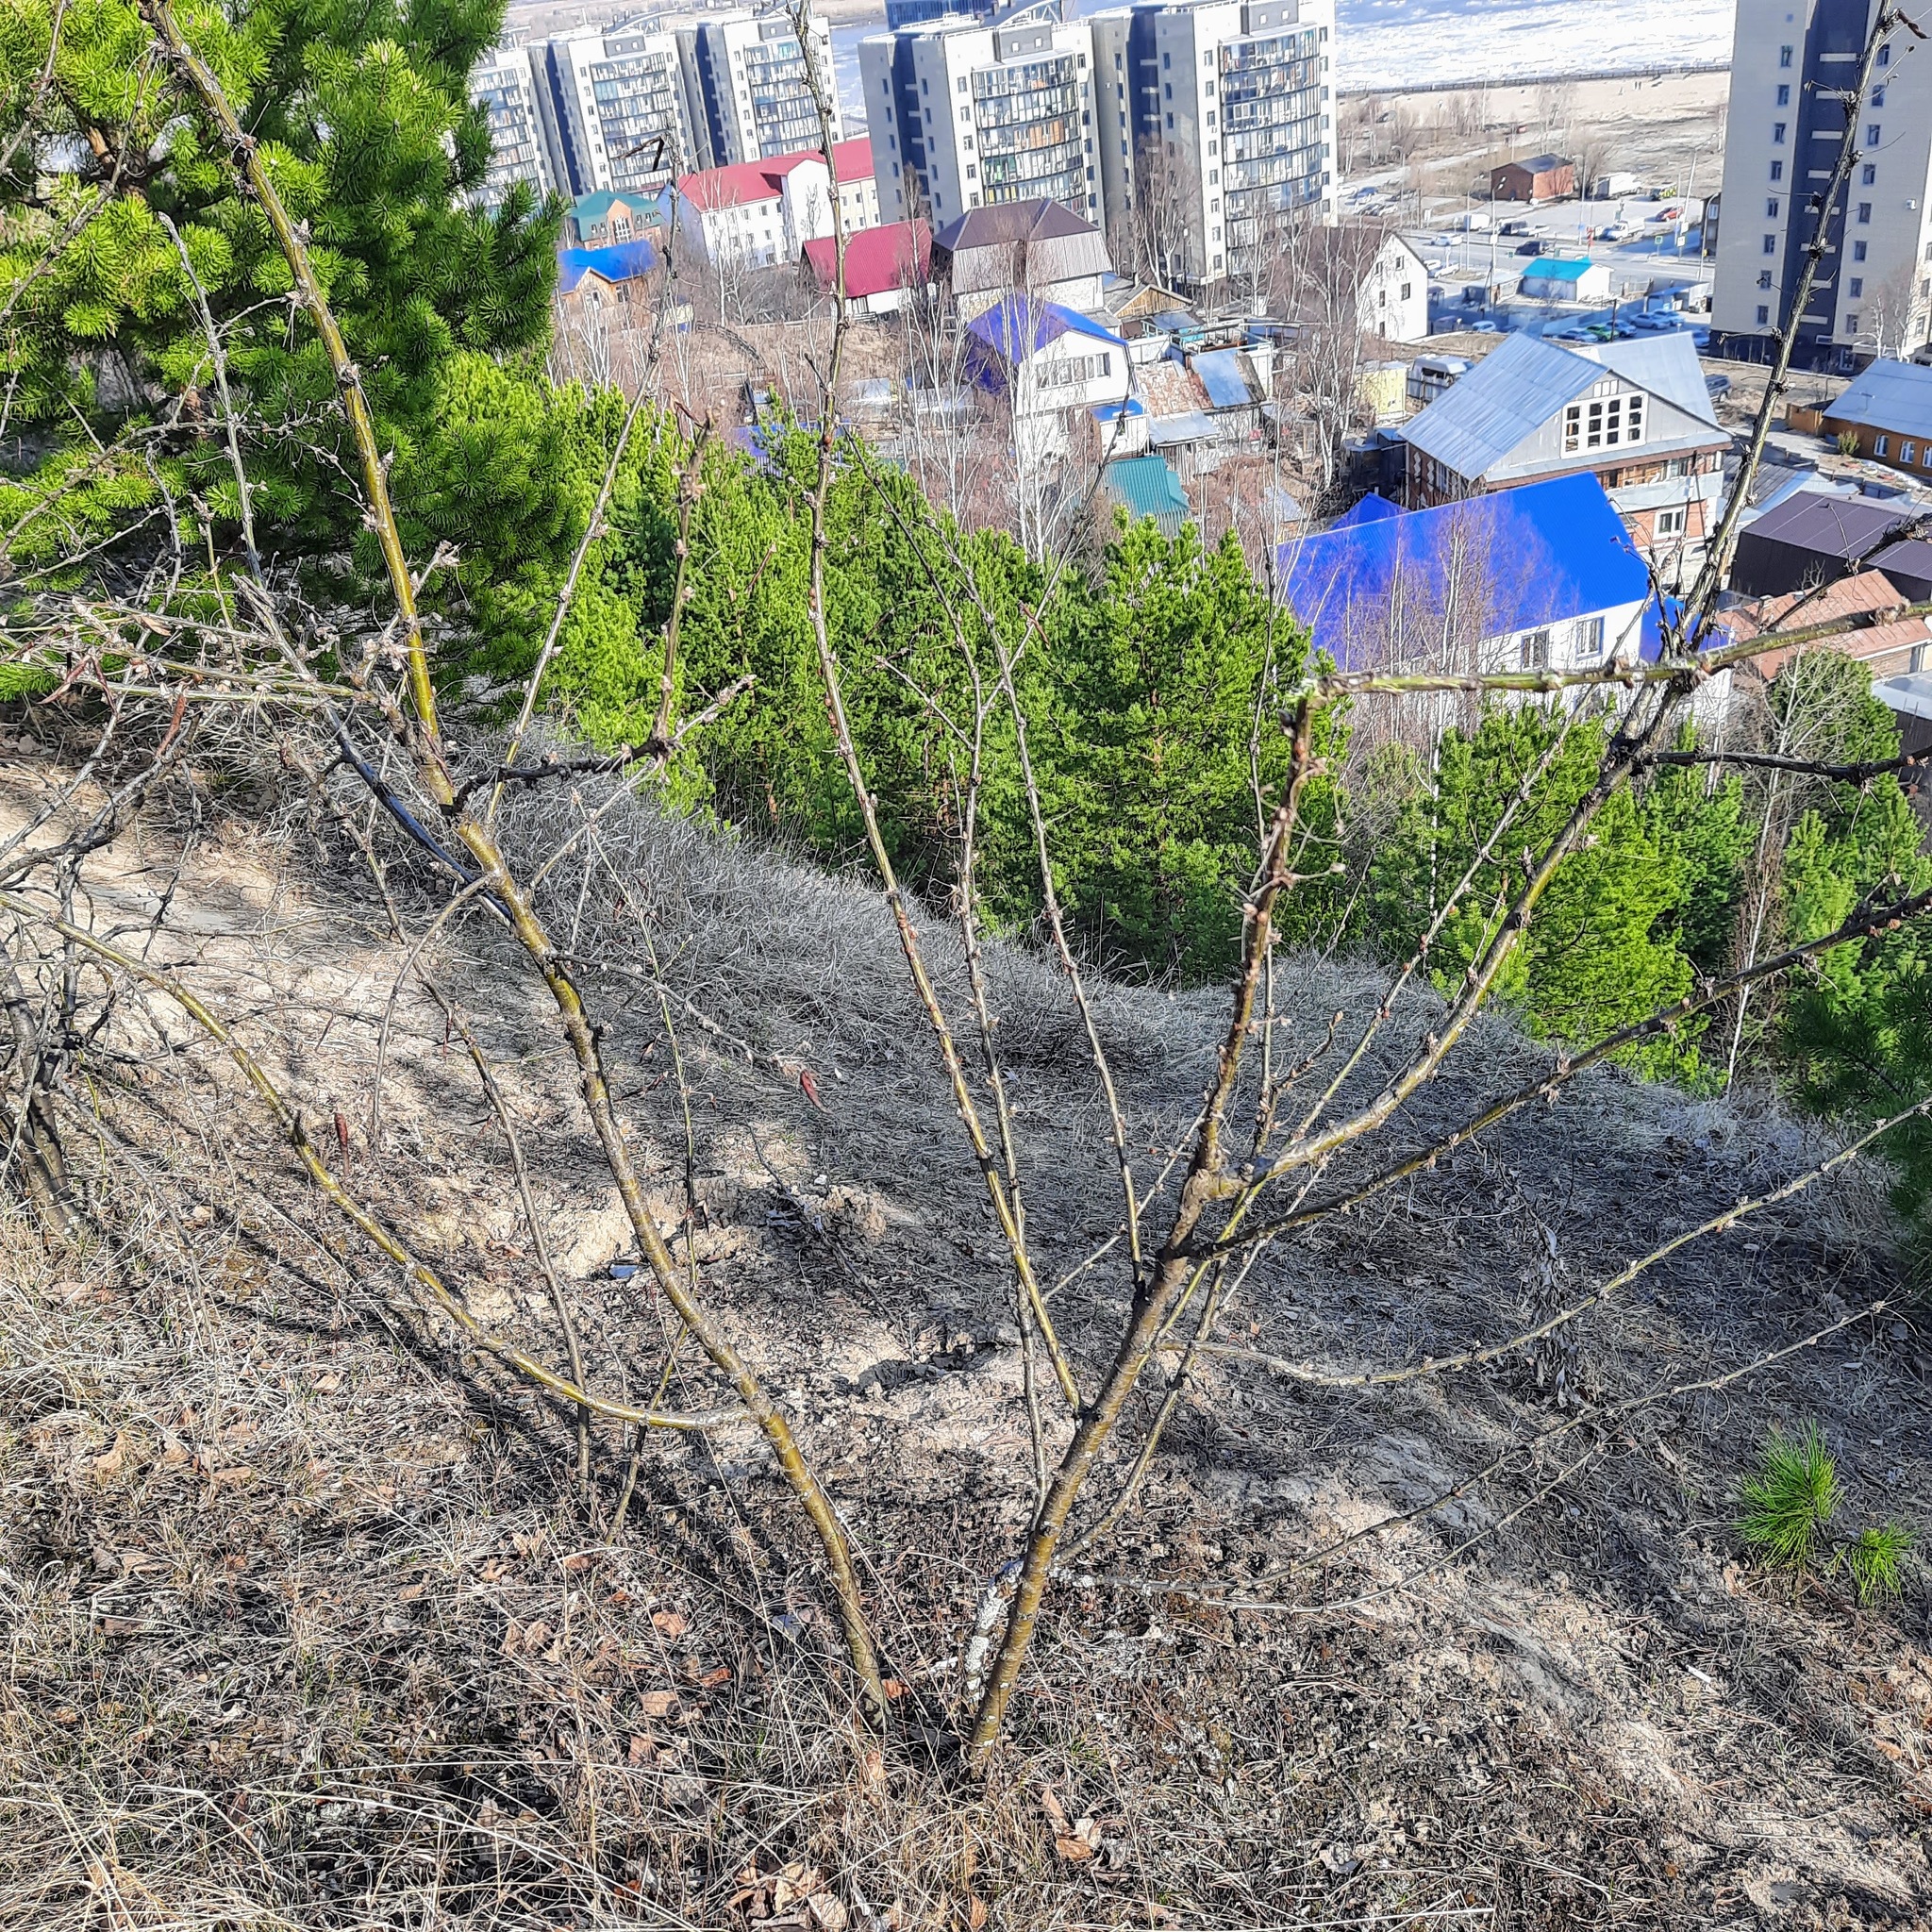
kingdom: Plantae
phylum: Tracheophyta
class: Magnoliopsida
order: Fabales
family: Fabaceae
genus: Caragana
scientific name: Caragana arborescens
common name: Siberian peashrub
